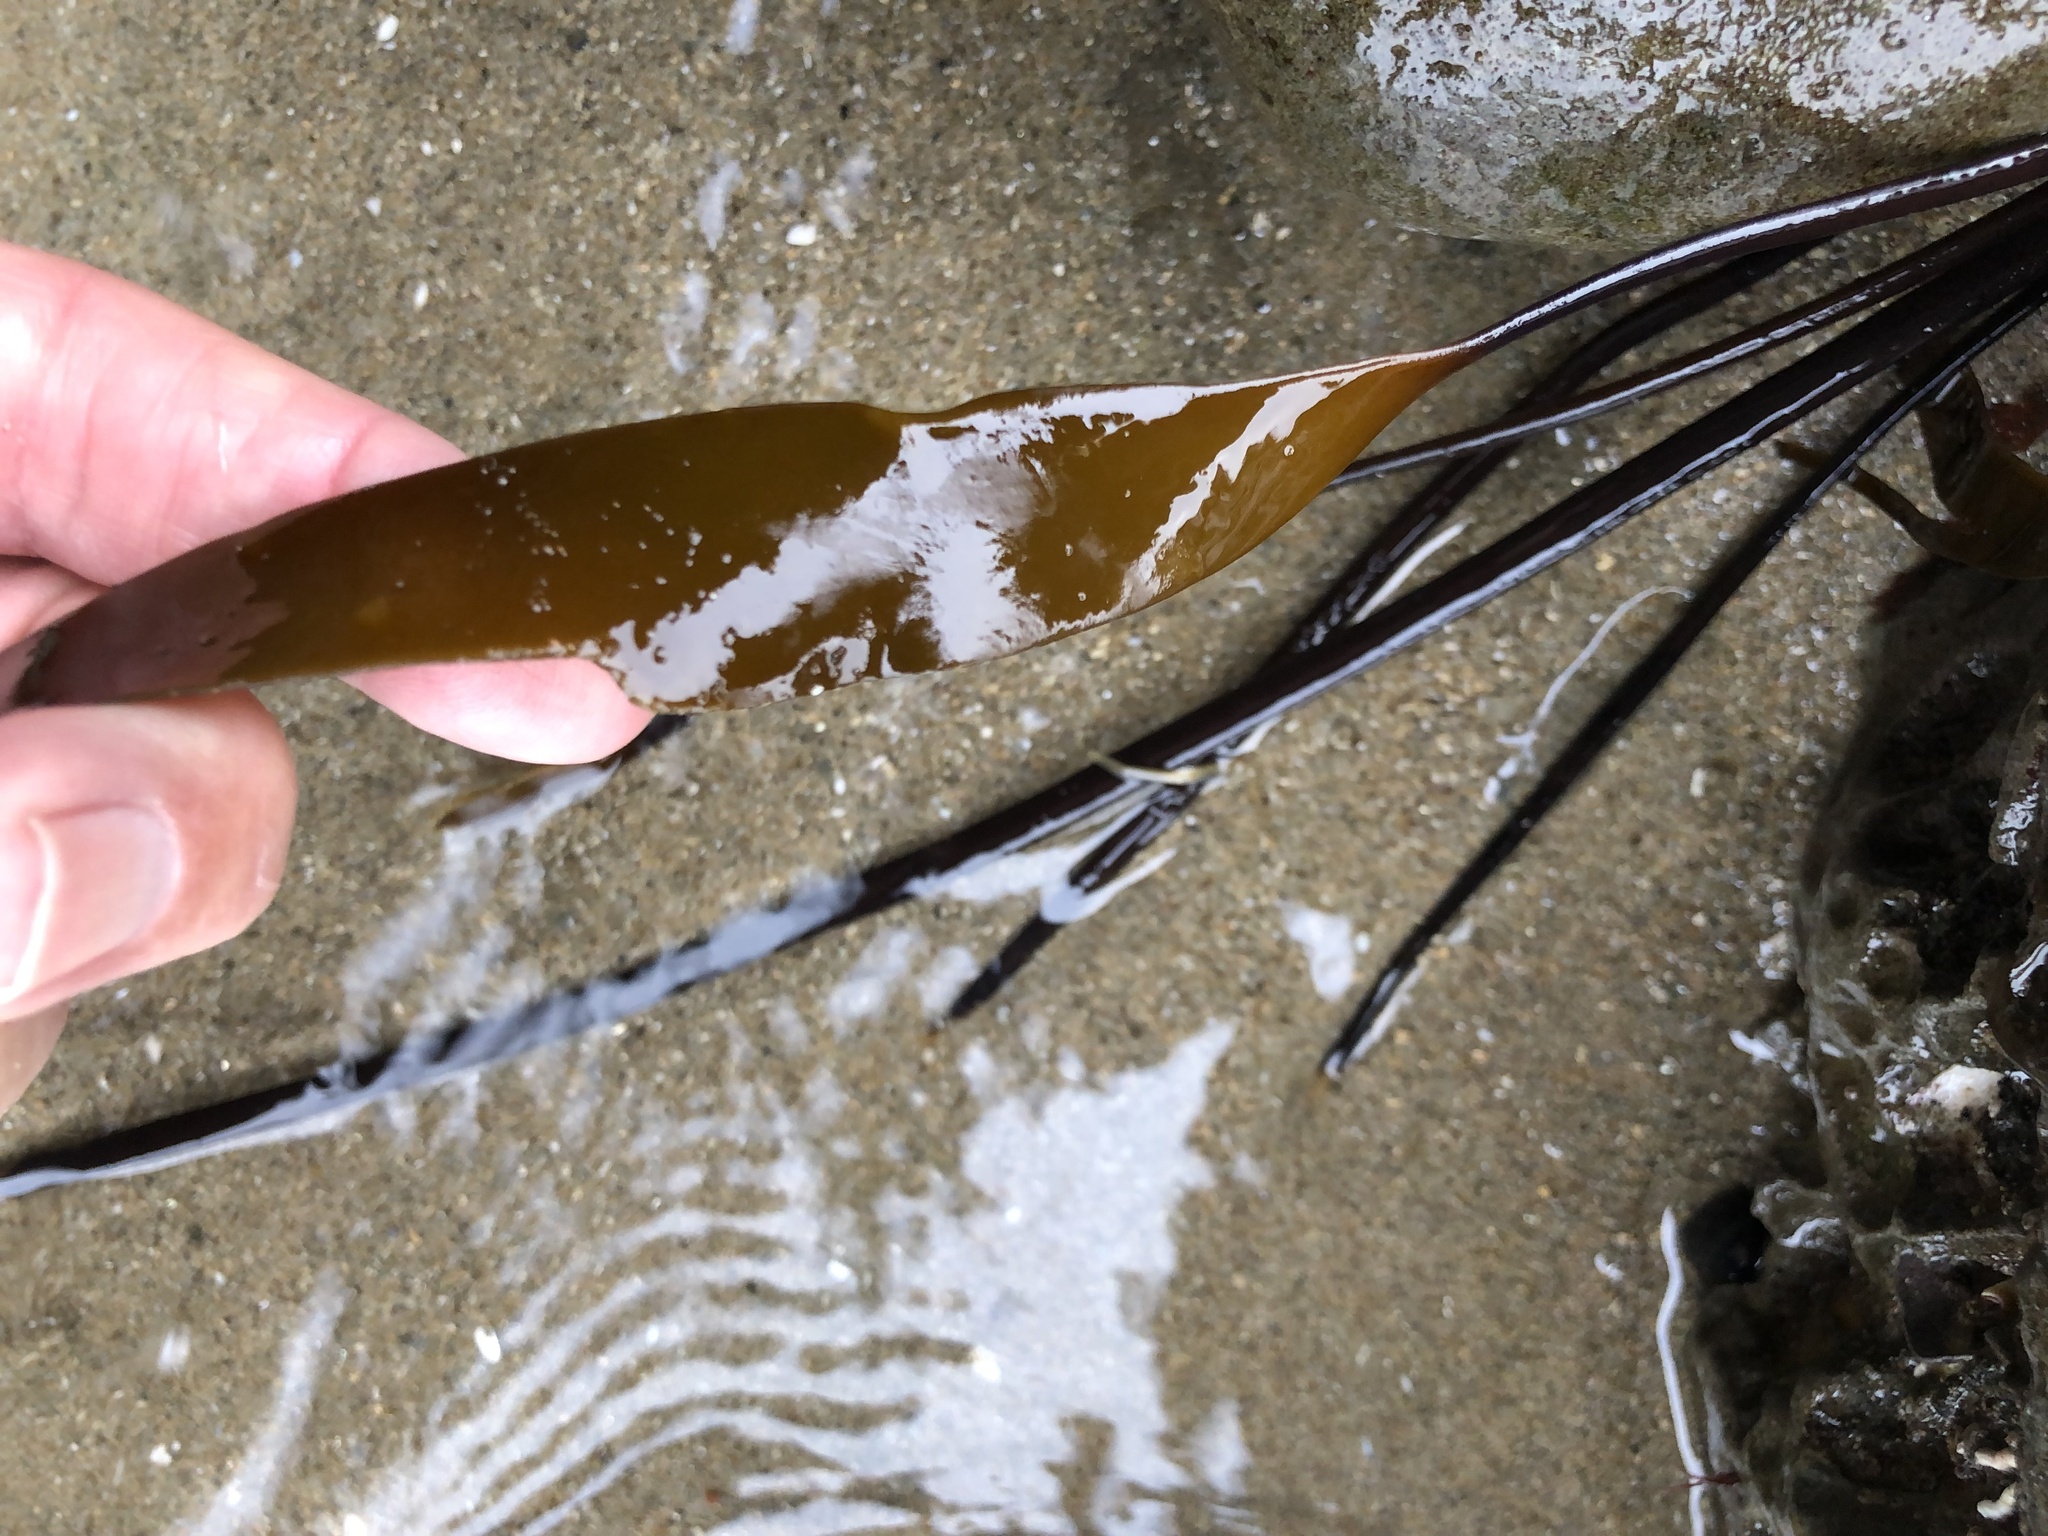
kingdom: Chromista
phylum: Ochrophyta
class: Phaeophyceae
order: Laminariales
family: Laminariaceae
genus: Laminaria
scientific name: Laminaria sinclairii
